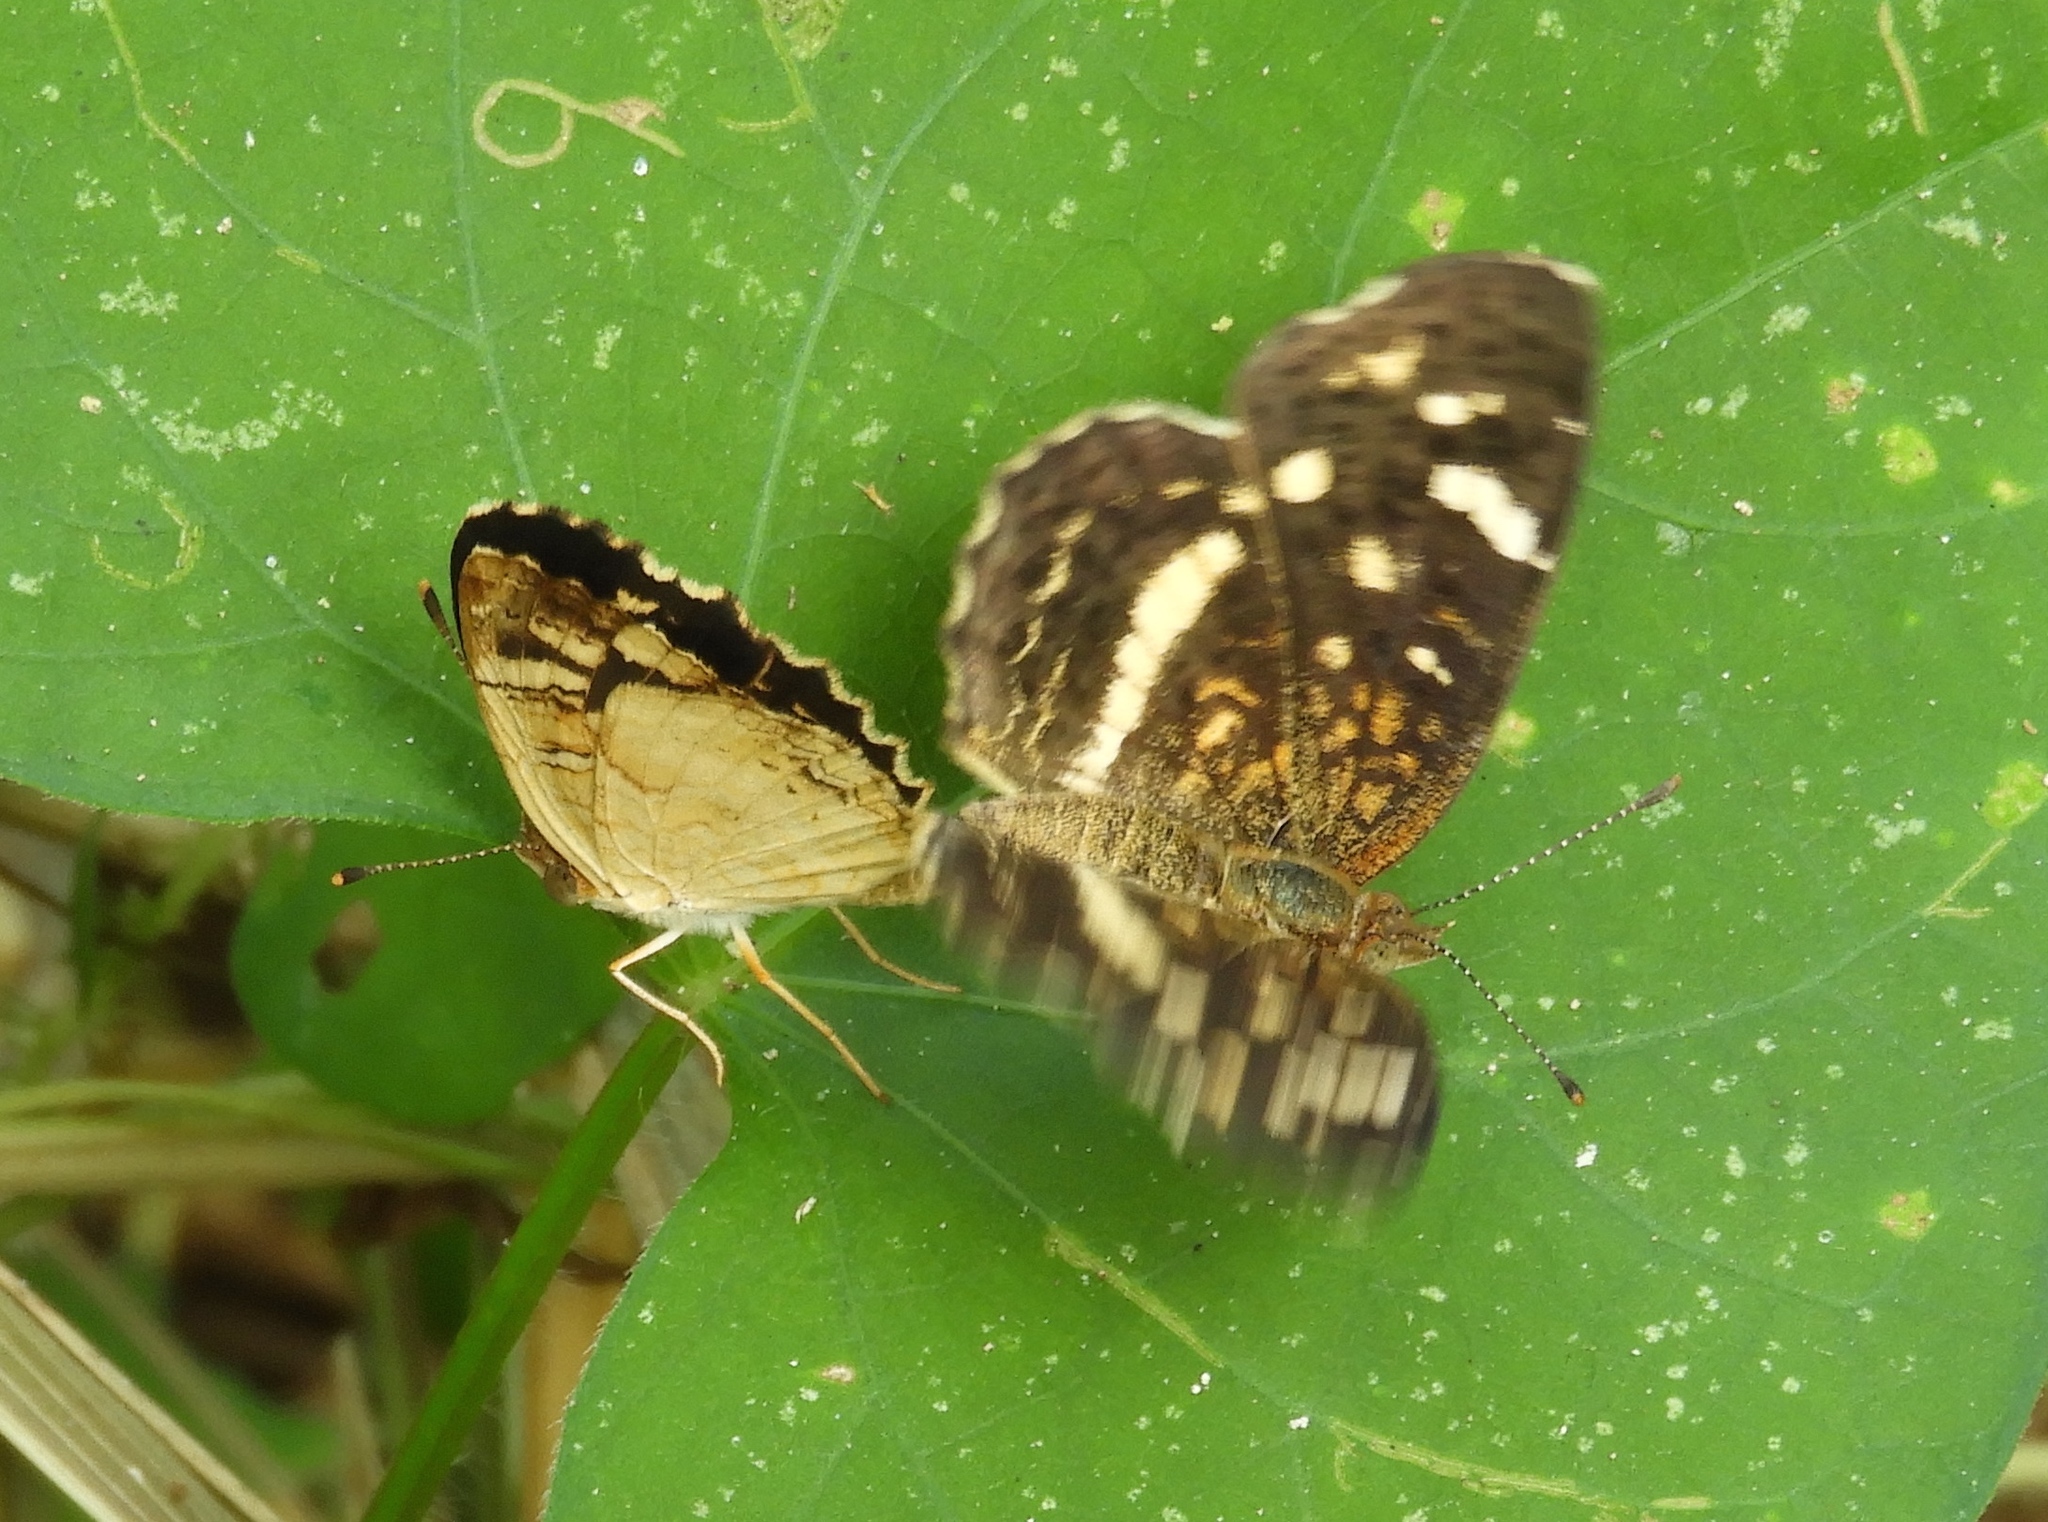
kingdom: Animalia
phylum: Arthropoda
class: Insecta
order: Lepidoptera
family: Nymphalidae
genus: Anthanassa
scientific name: Anthanassa
